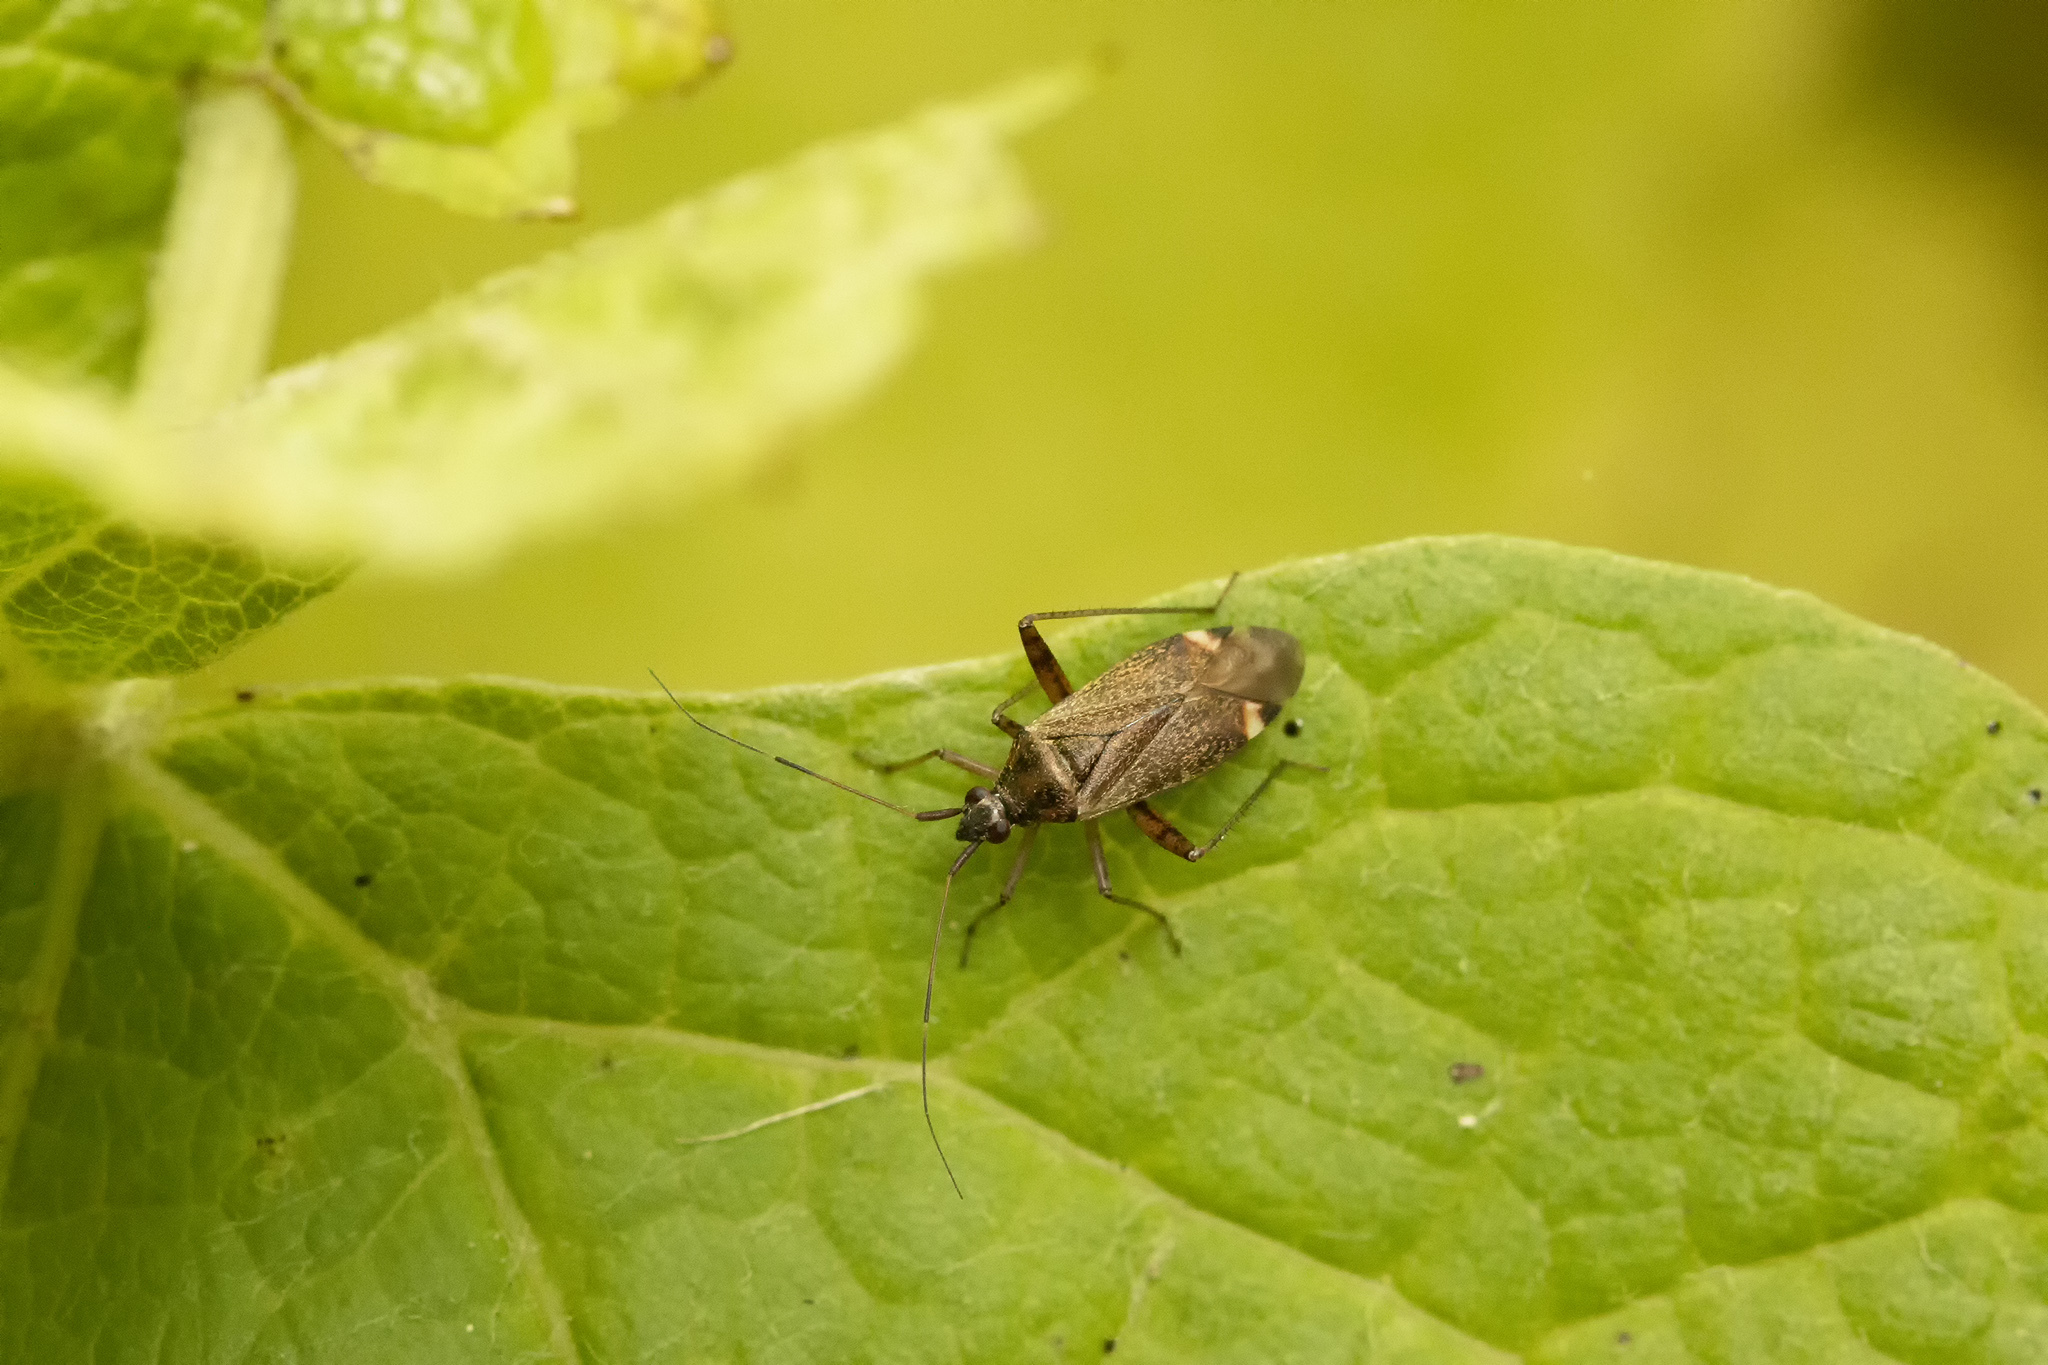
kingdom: Animalia
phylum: Arthropoda
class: Insecta
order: Hemiptera
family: Miridae
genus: Closterotomus
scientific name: Closterotomus fulvomaculatus
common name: Spotted plant bug
